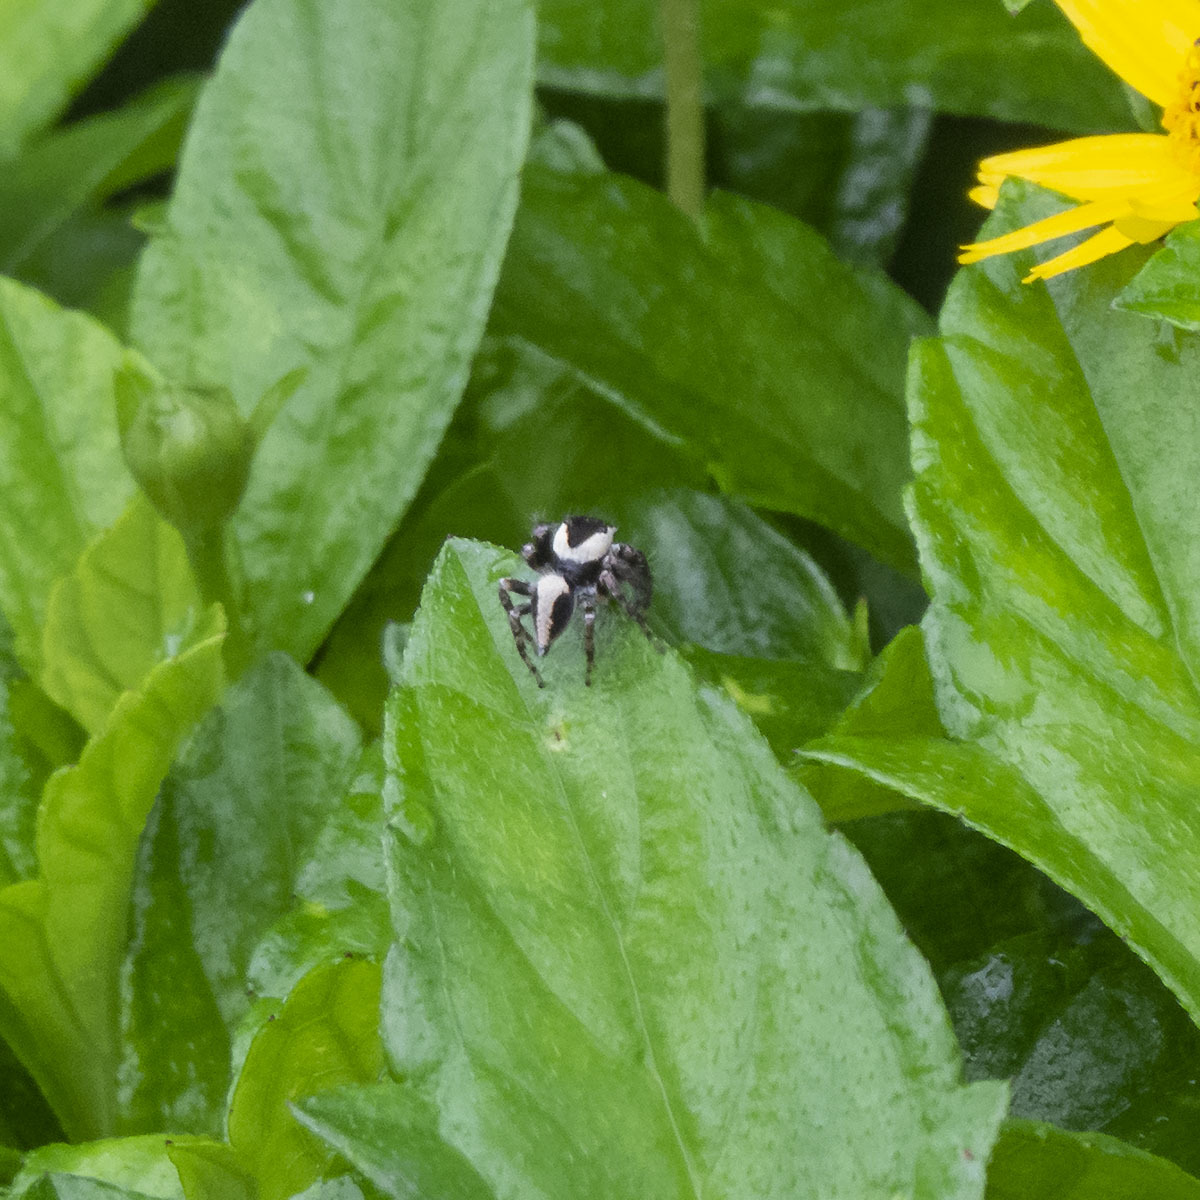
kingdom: Animalia
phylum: Arthropoda
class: Arachnida
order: Araneae
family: Salticidae
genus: Hyllus
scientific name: Hyllus manu
